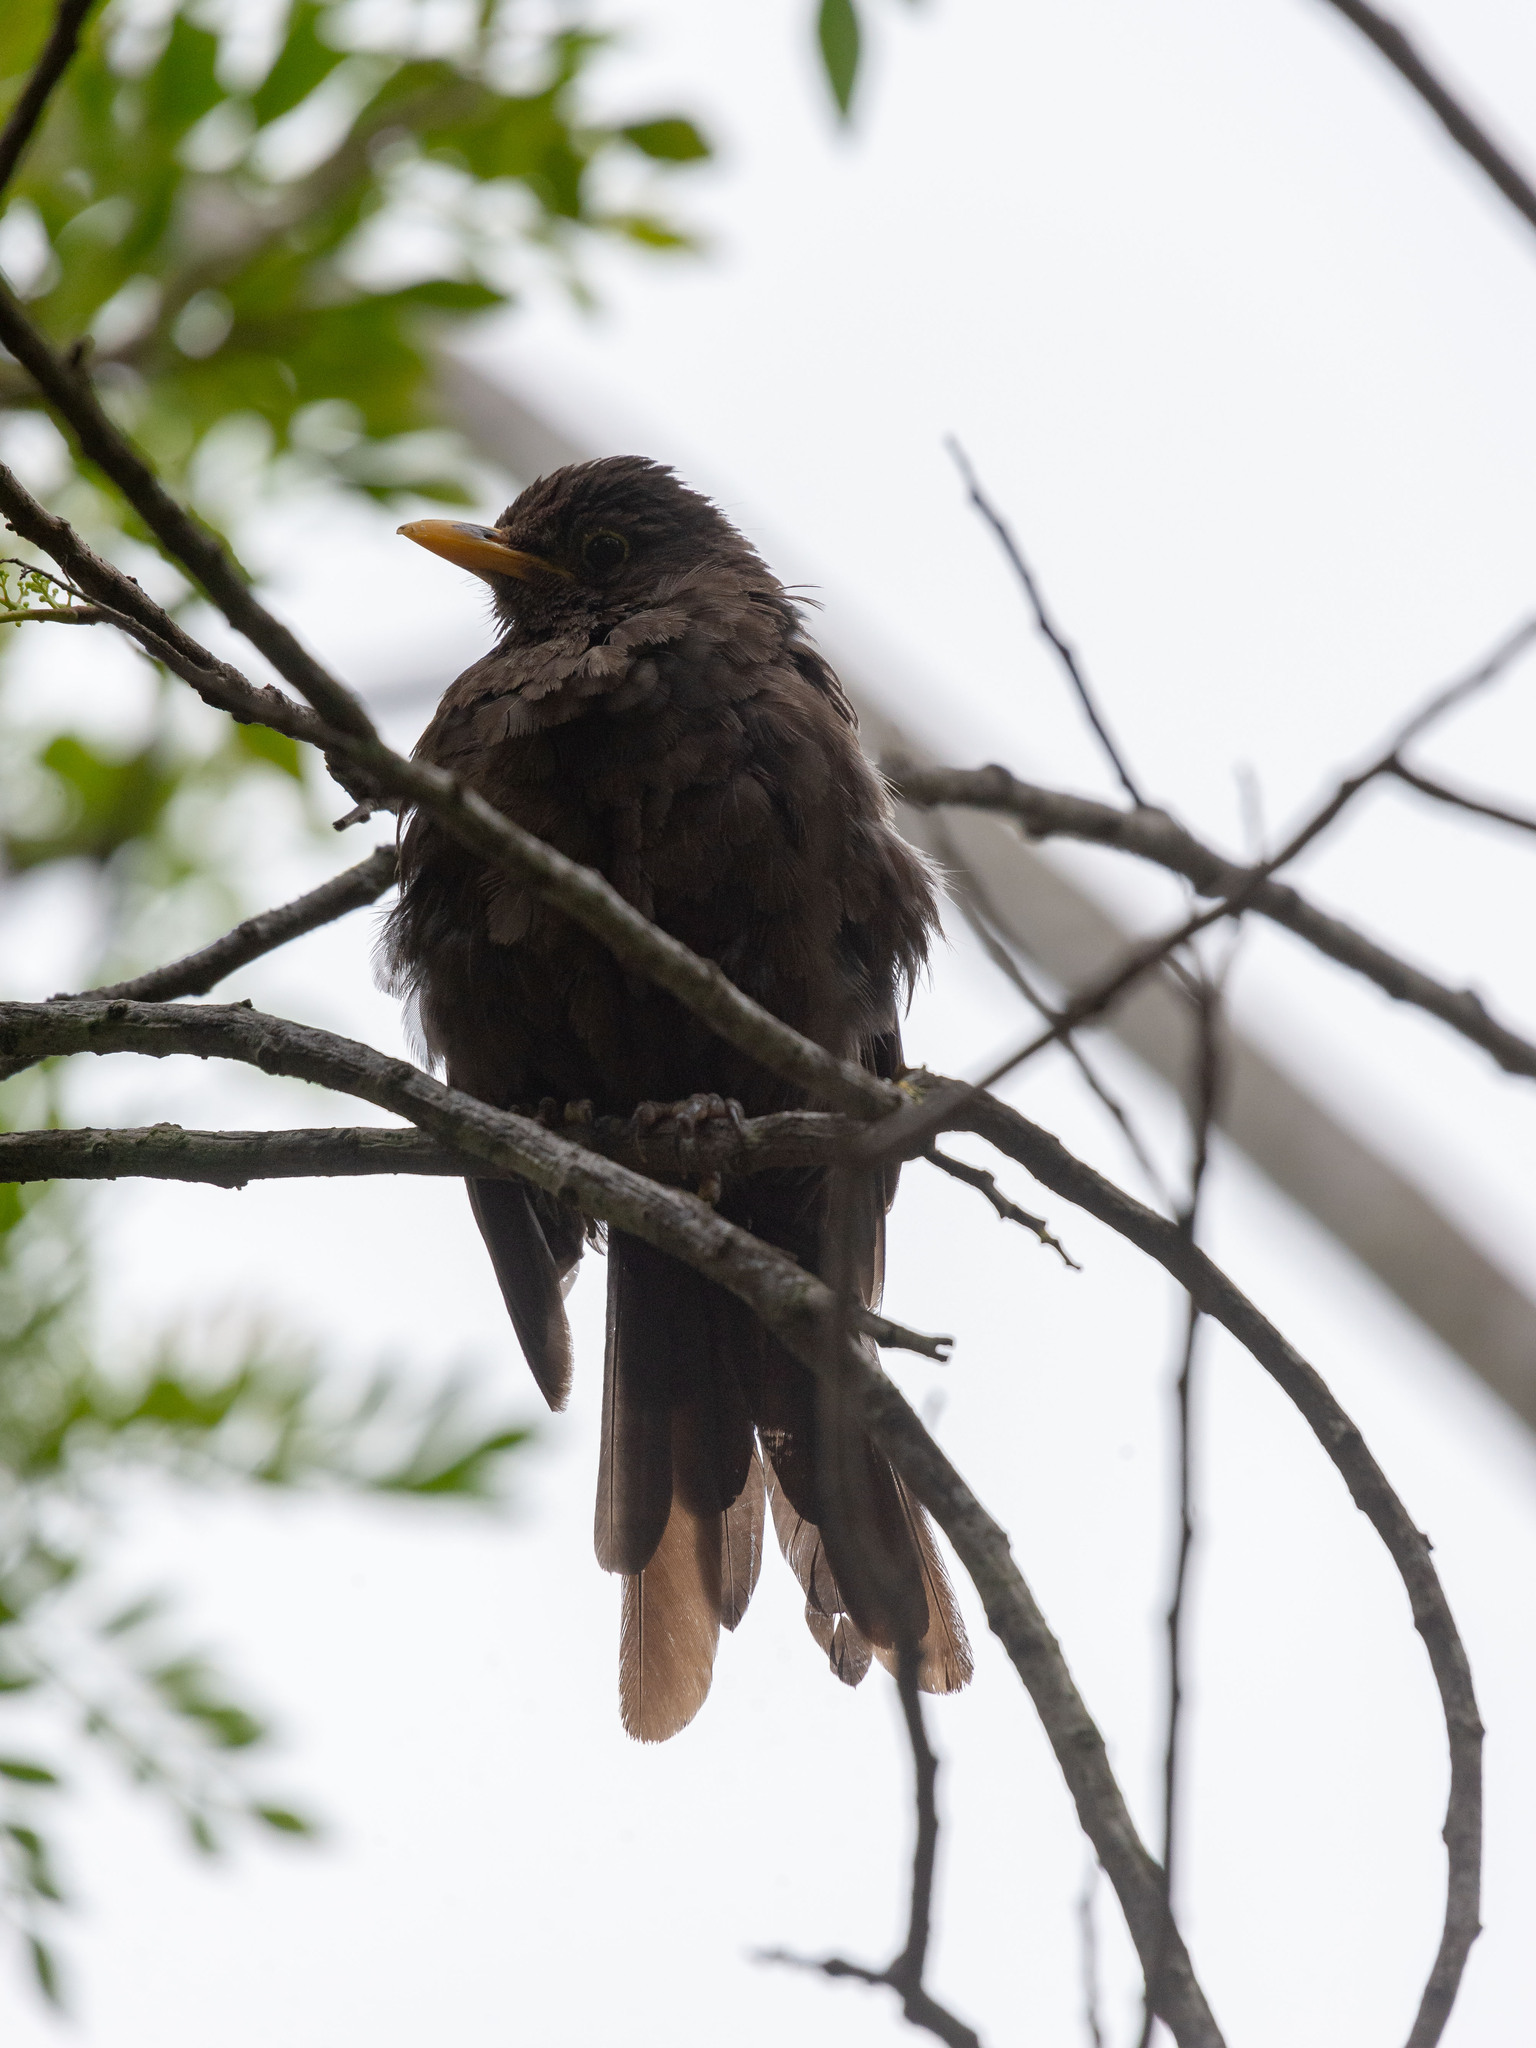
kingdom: Animalia
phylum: Chordata
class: Aves
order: Passeriformes
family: Turdidae
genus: Turdus
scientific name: Turdus merula
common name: Common blackbird
